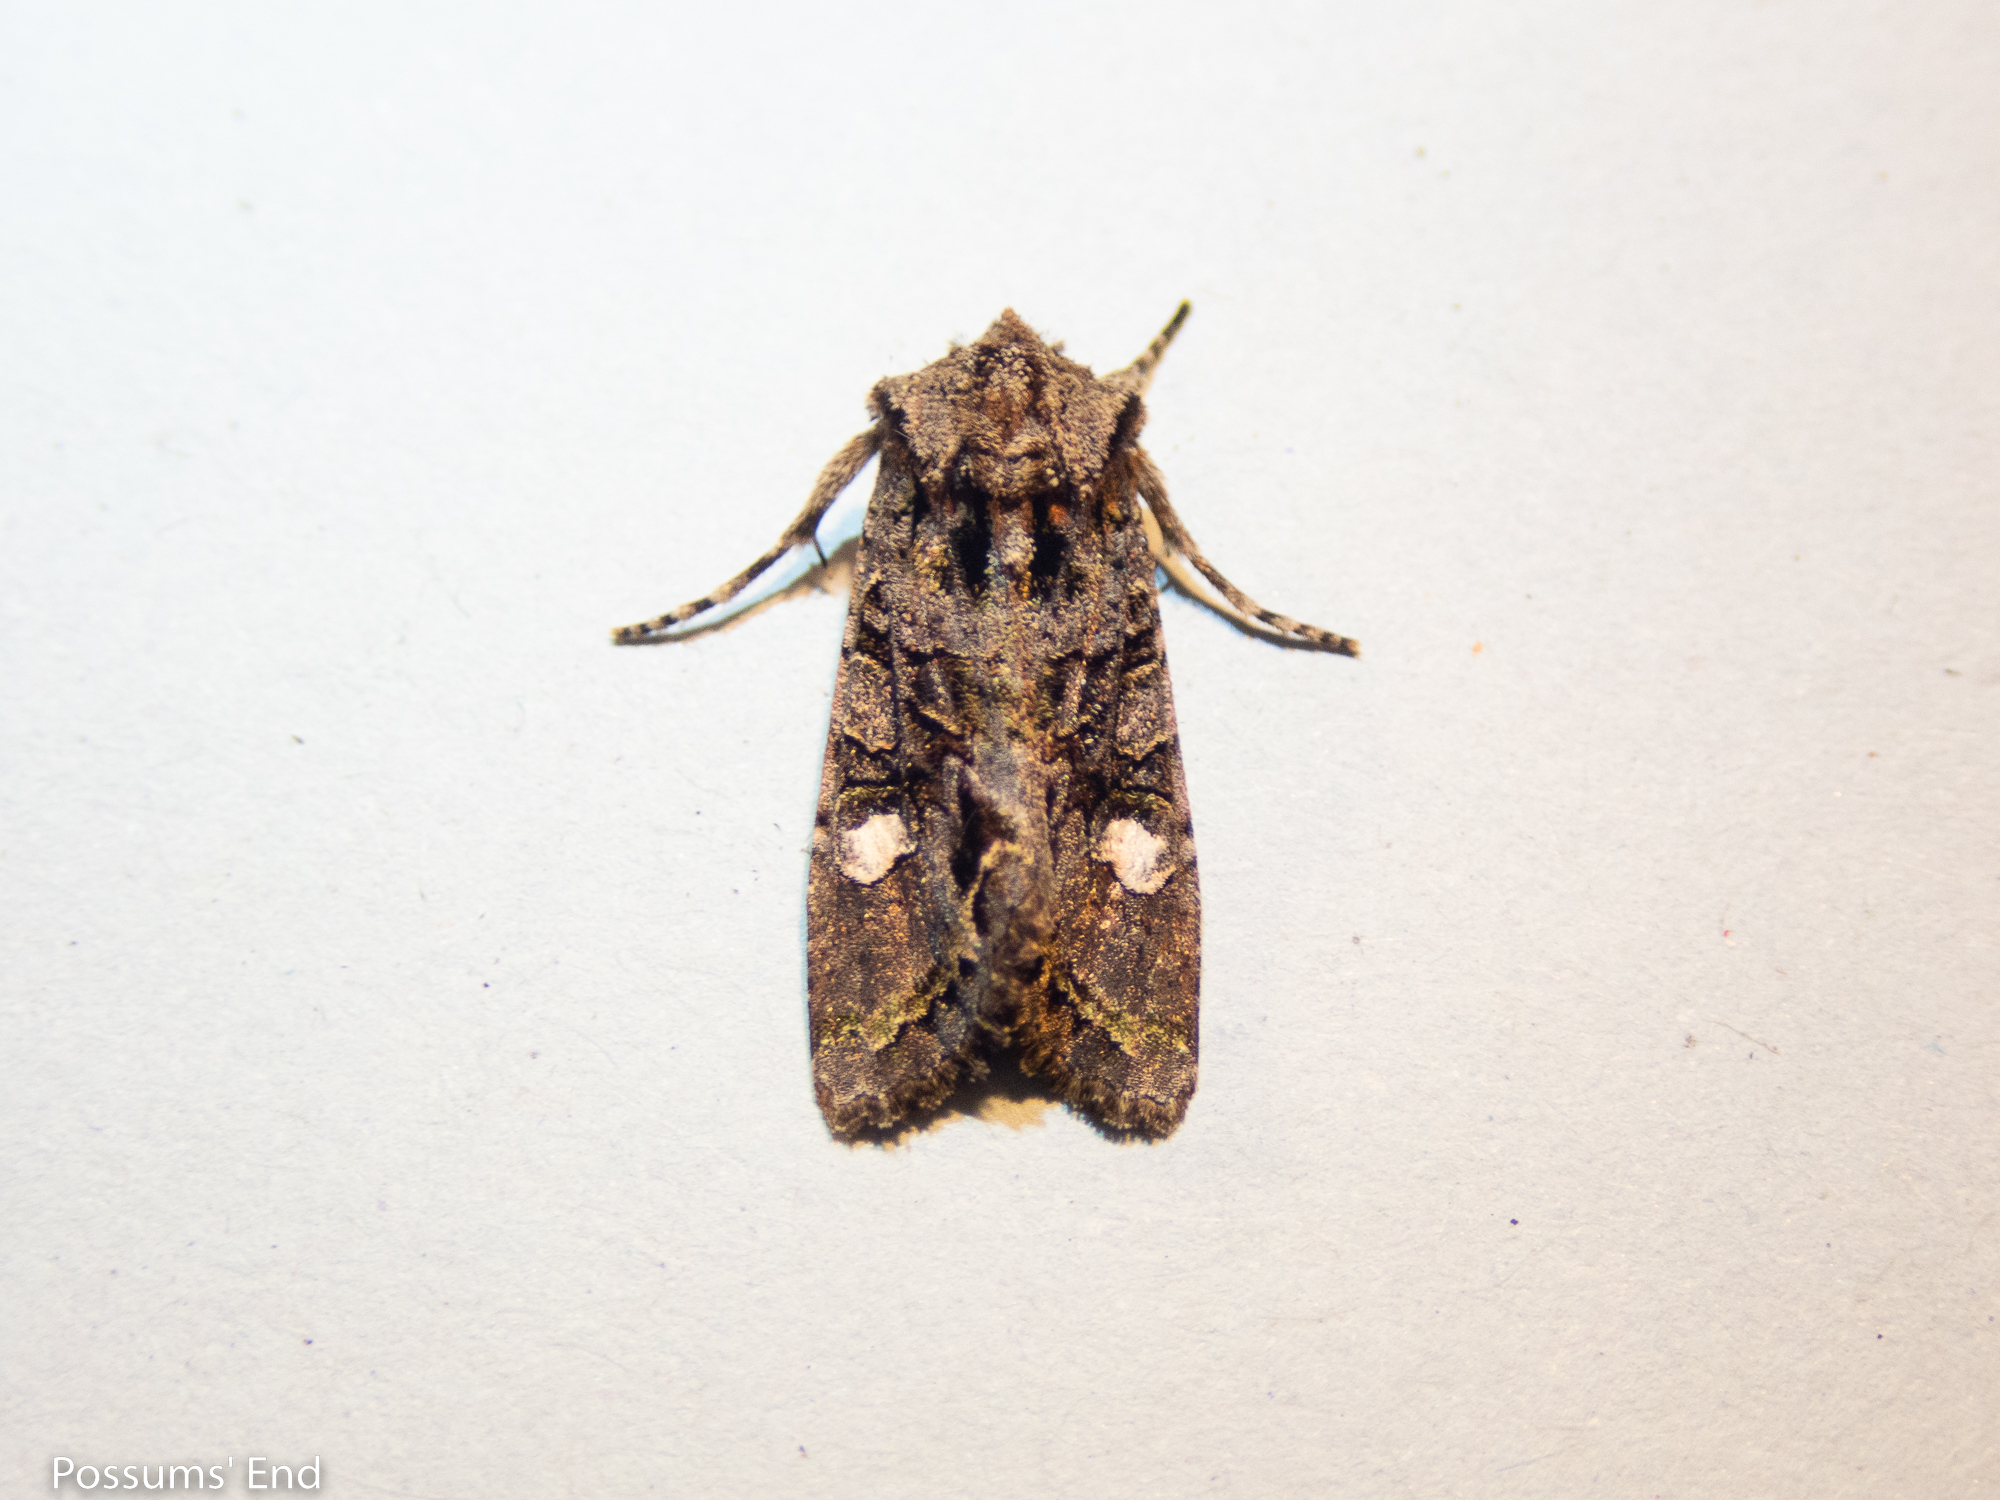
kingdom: Animalia
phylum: Arthropoda
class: Insecta
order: Lepidoptera
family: Noctuidae
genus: Ichneutica
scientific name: Ichneutica insignis
